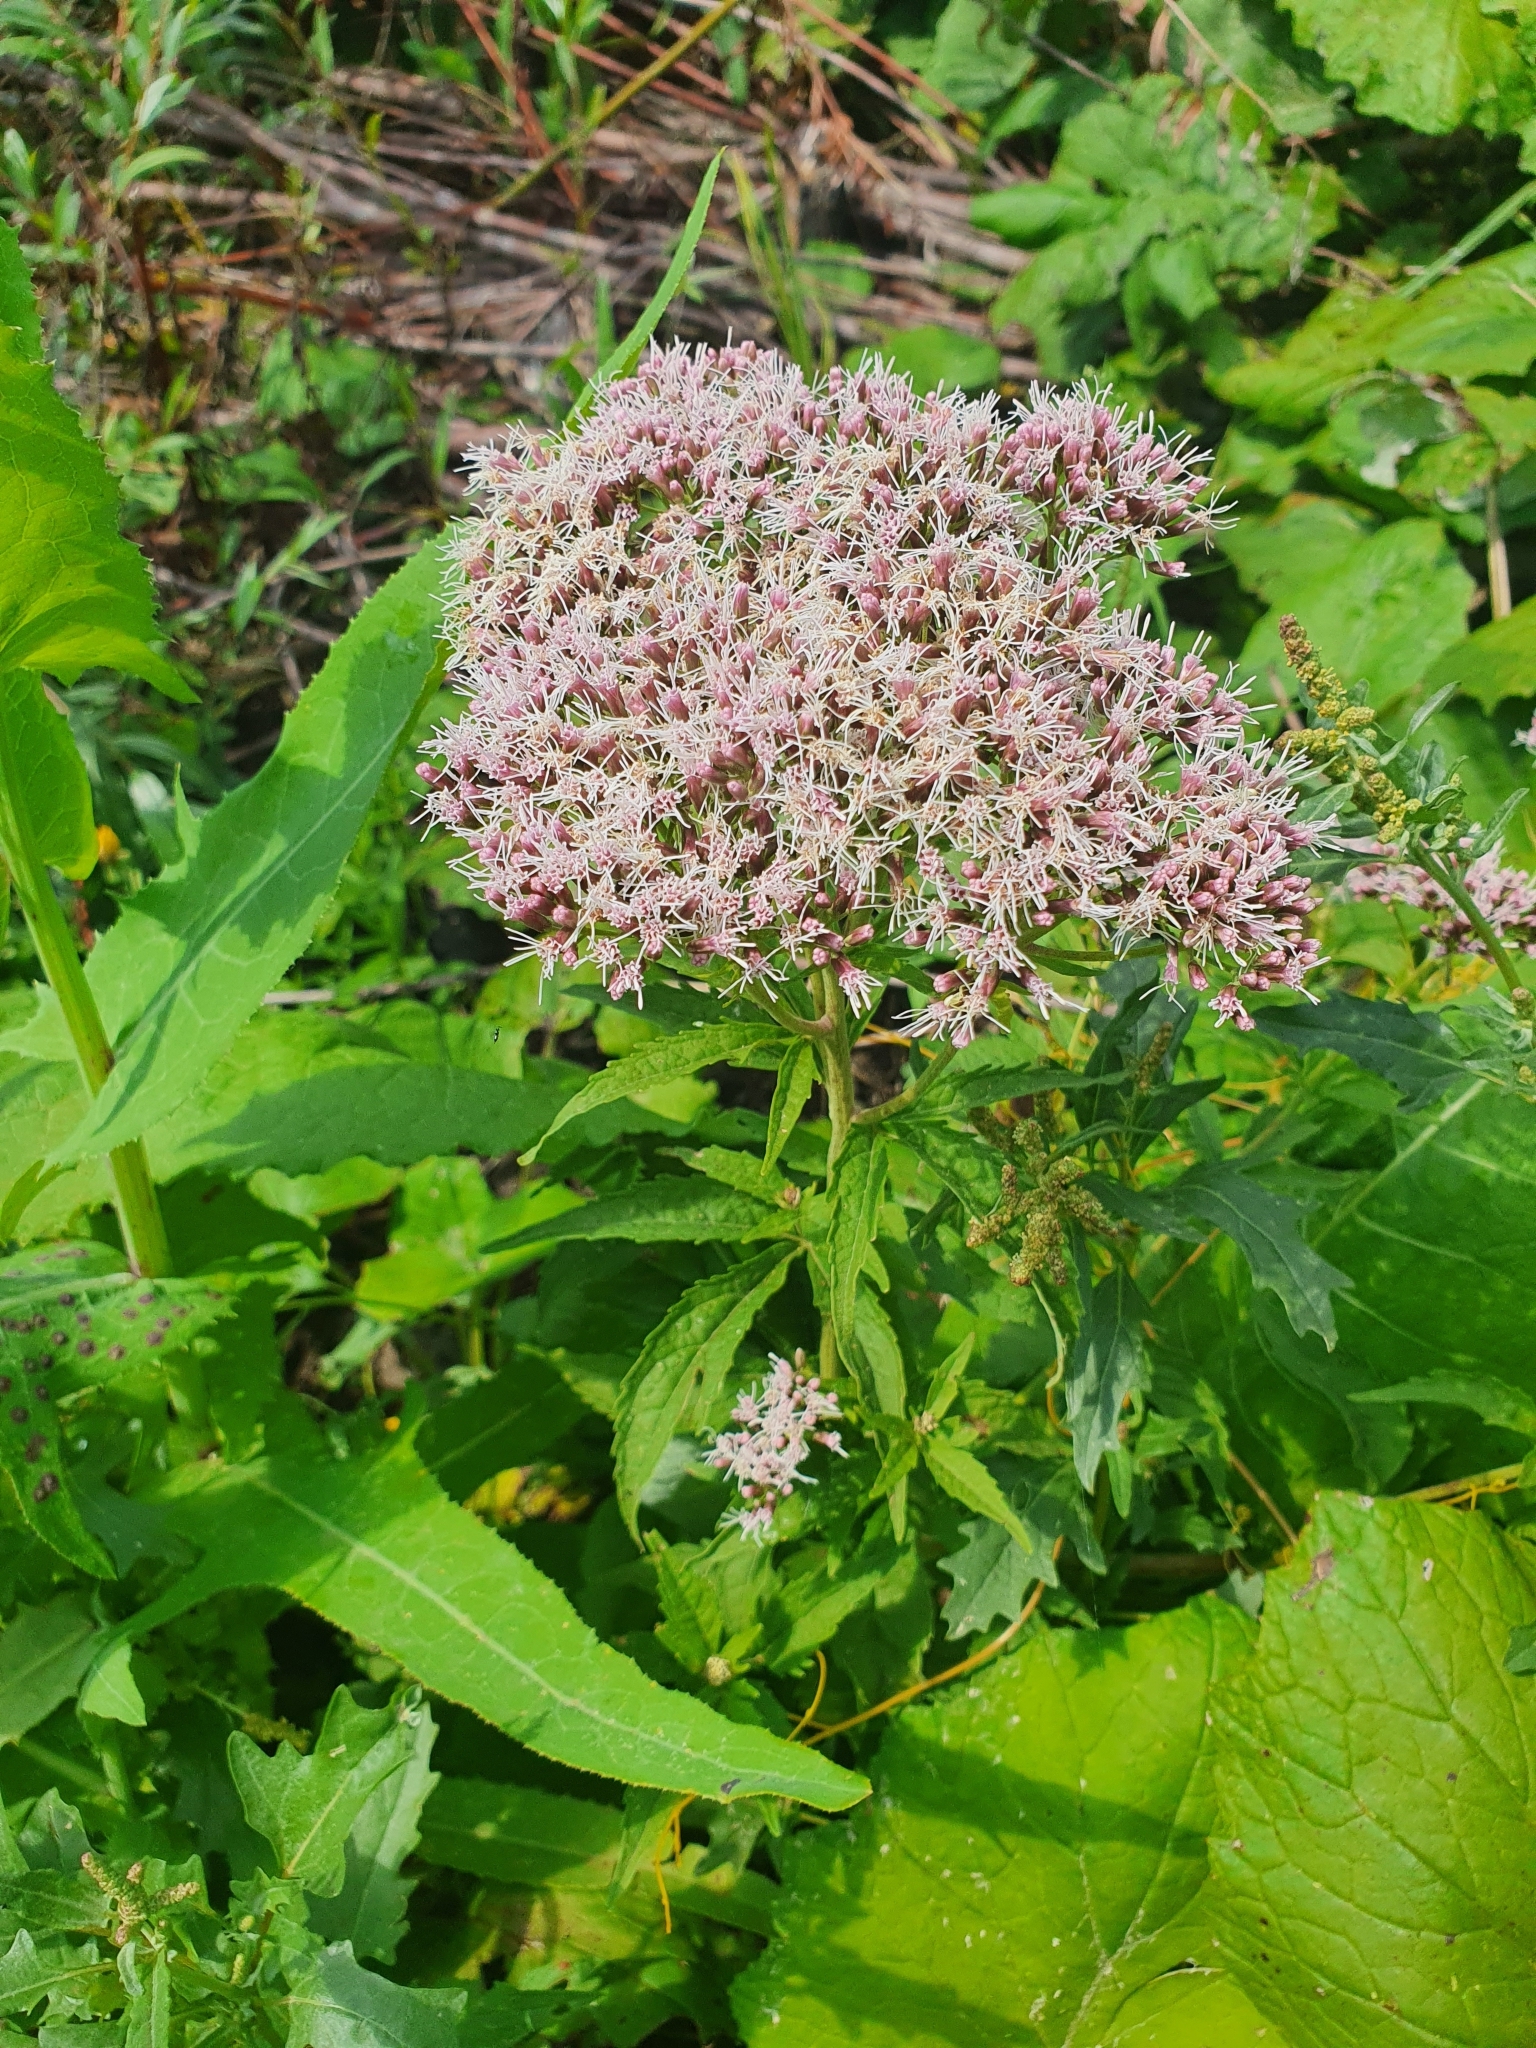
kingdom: Plantae
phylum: Tracheophyta
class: Magnoliopsida
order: Asterales
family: Asteraceae
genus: Eupatorium
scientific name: Eupatorium cannabinum
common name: Hemp-agrimony
